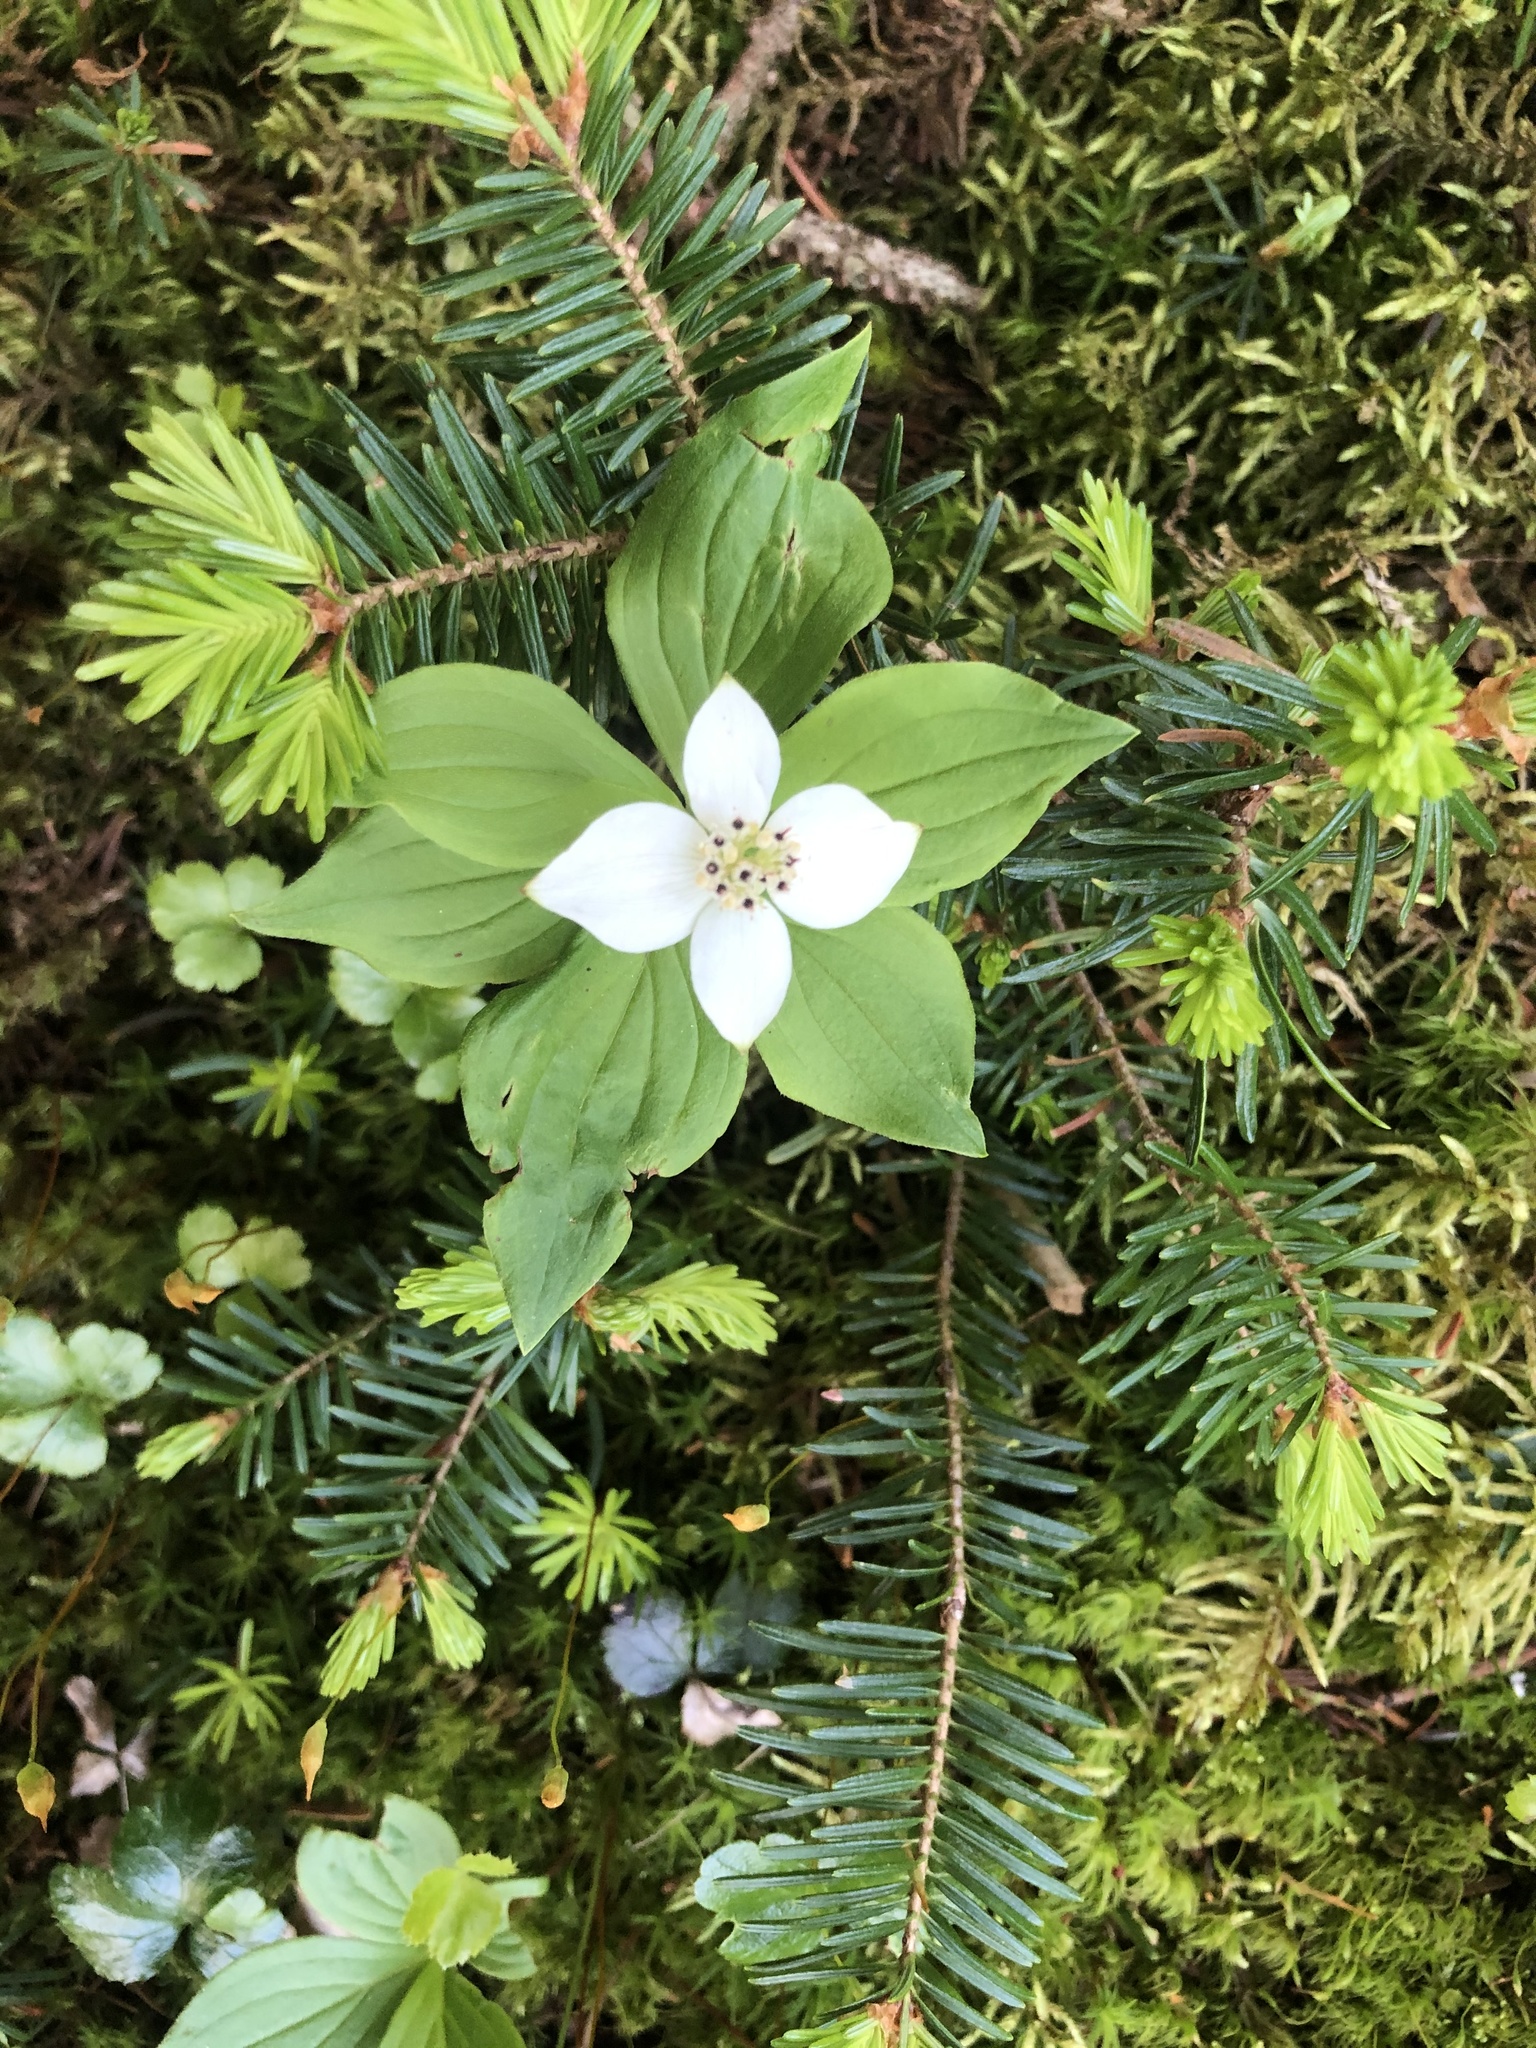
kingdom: Plantae
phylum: Tracheophyta
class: Magnoliopsida
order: Cornales
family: Cornaceae
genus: Cornus
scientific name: Cornus canadensis
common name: Creeping dogwood
